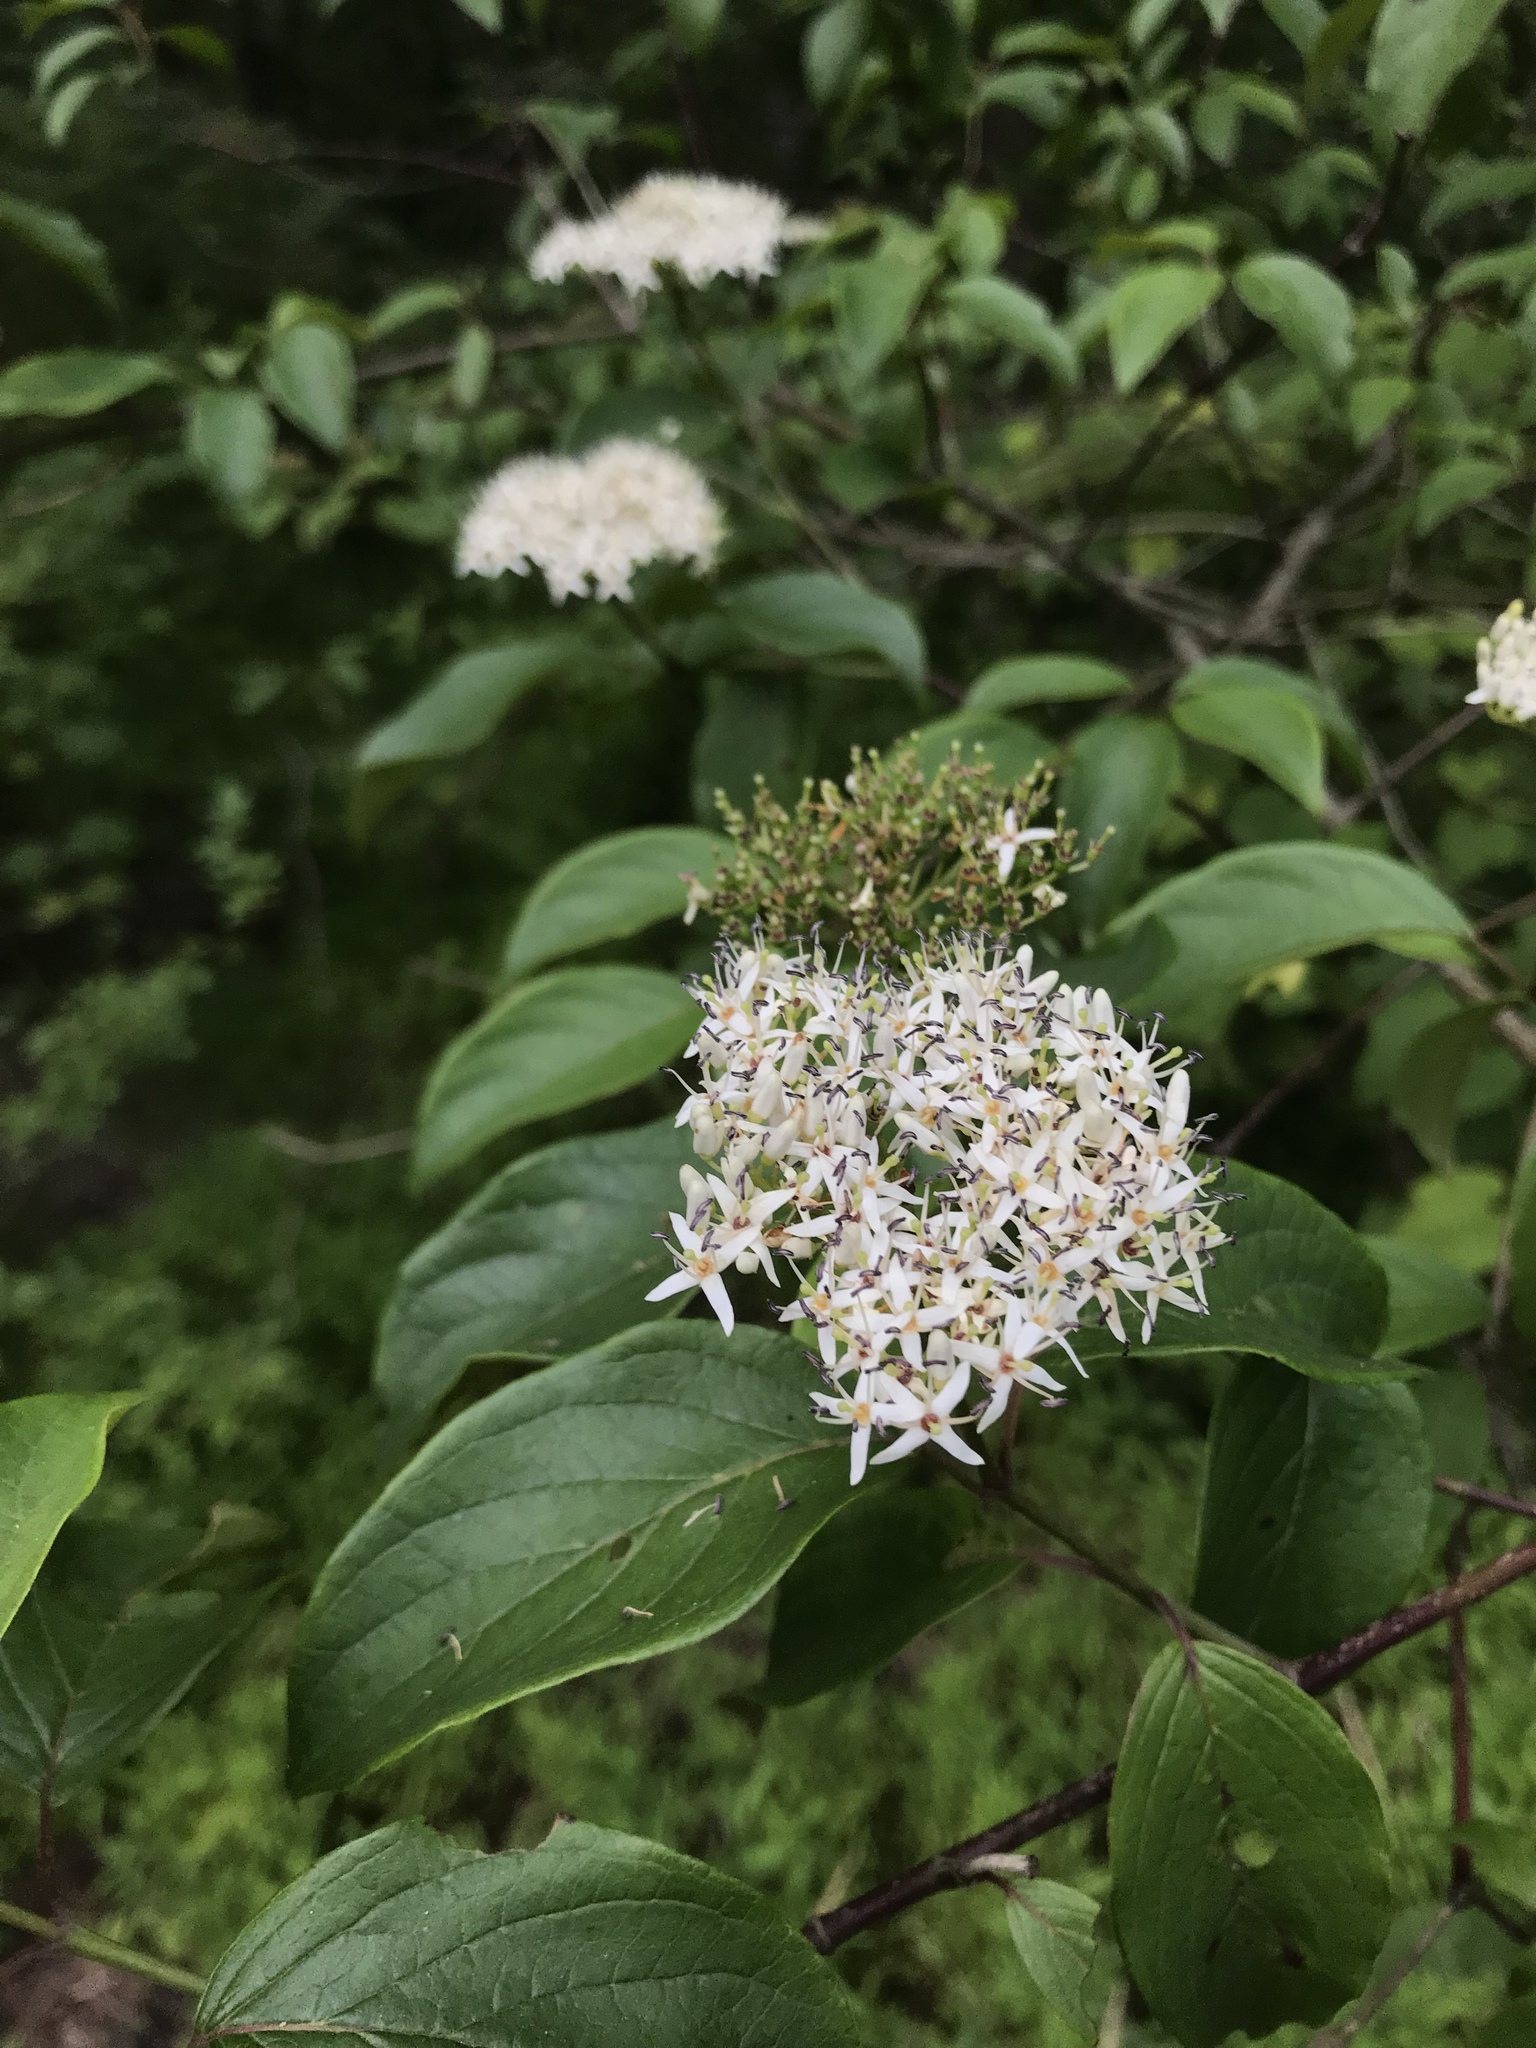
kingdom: Plantae
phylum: Tracheophyta
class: Magnoliopsida
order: Cornales
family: Cornaceae
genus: Cornus
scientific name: Cornus amomum
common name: Silky dogwood
